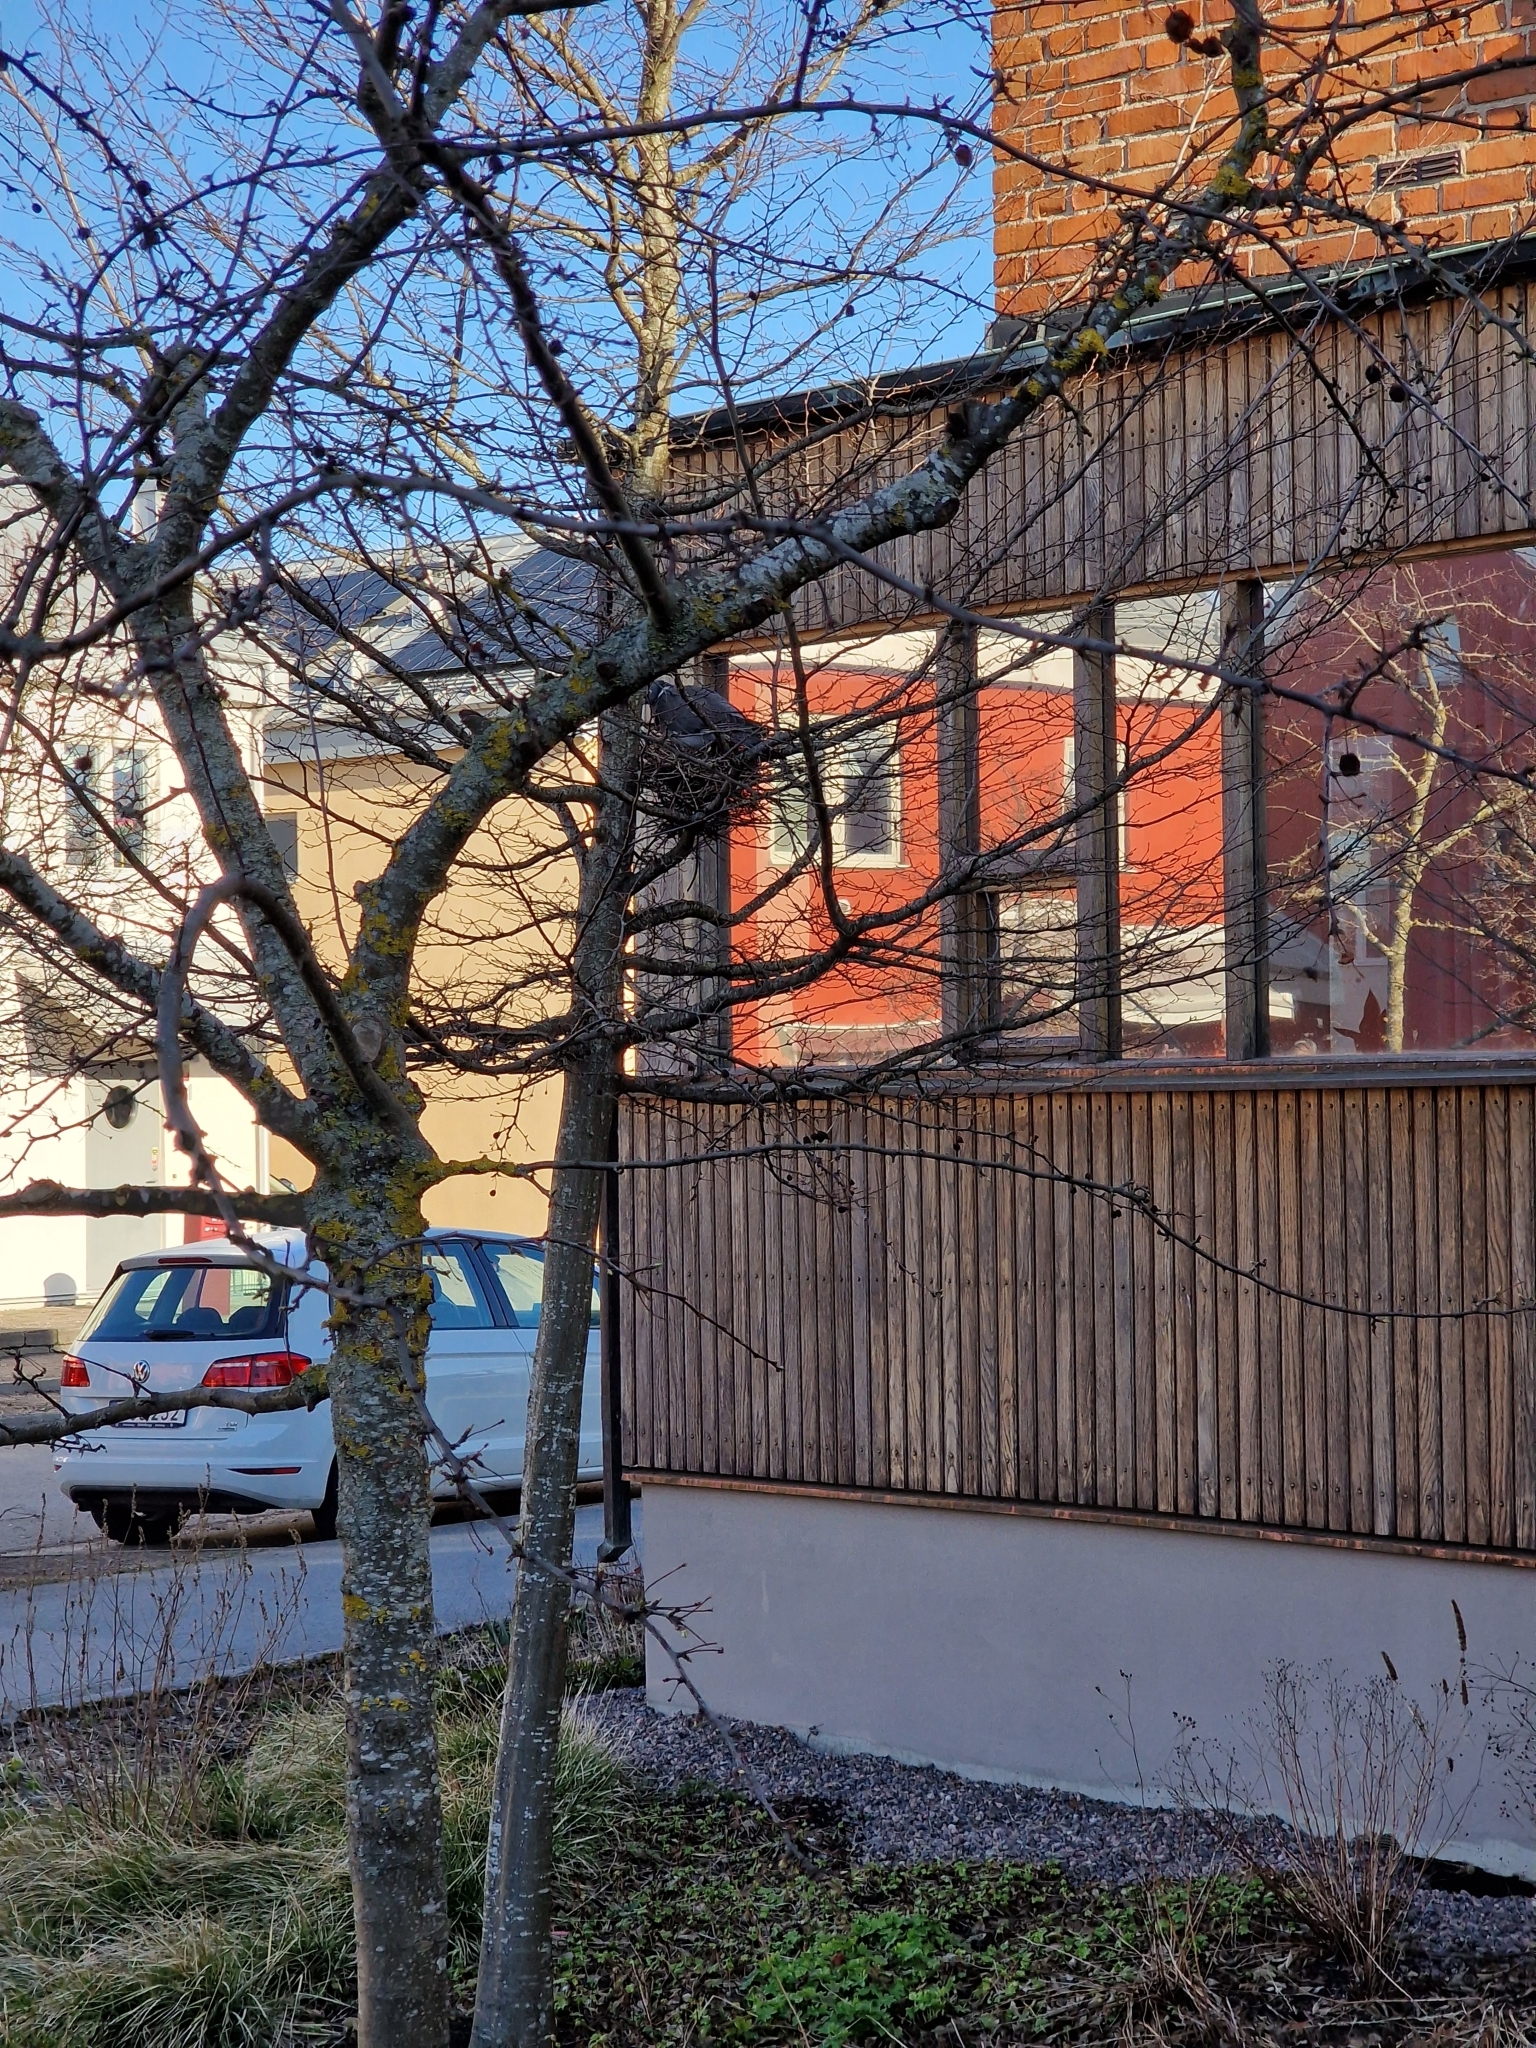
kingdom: Animalia
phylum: Chordata
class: Aves
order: Columbiformes
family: Columbidae
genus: Columba
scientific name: Columba palumbus
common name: Common wood pigeon
